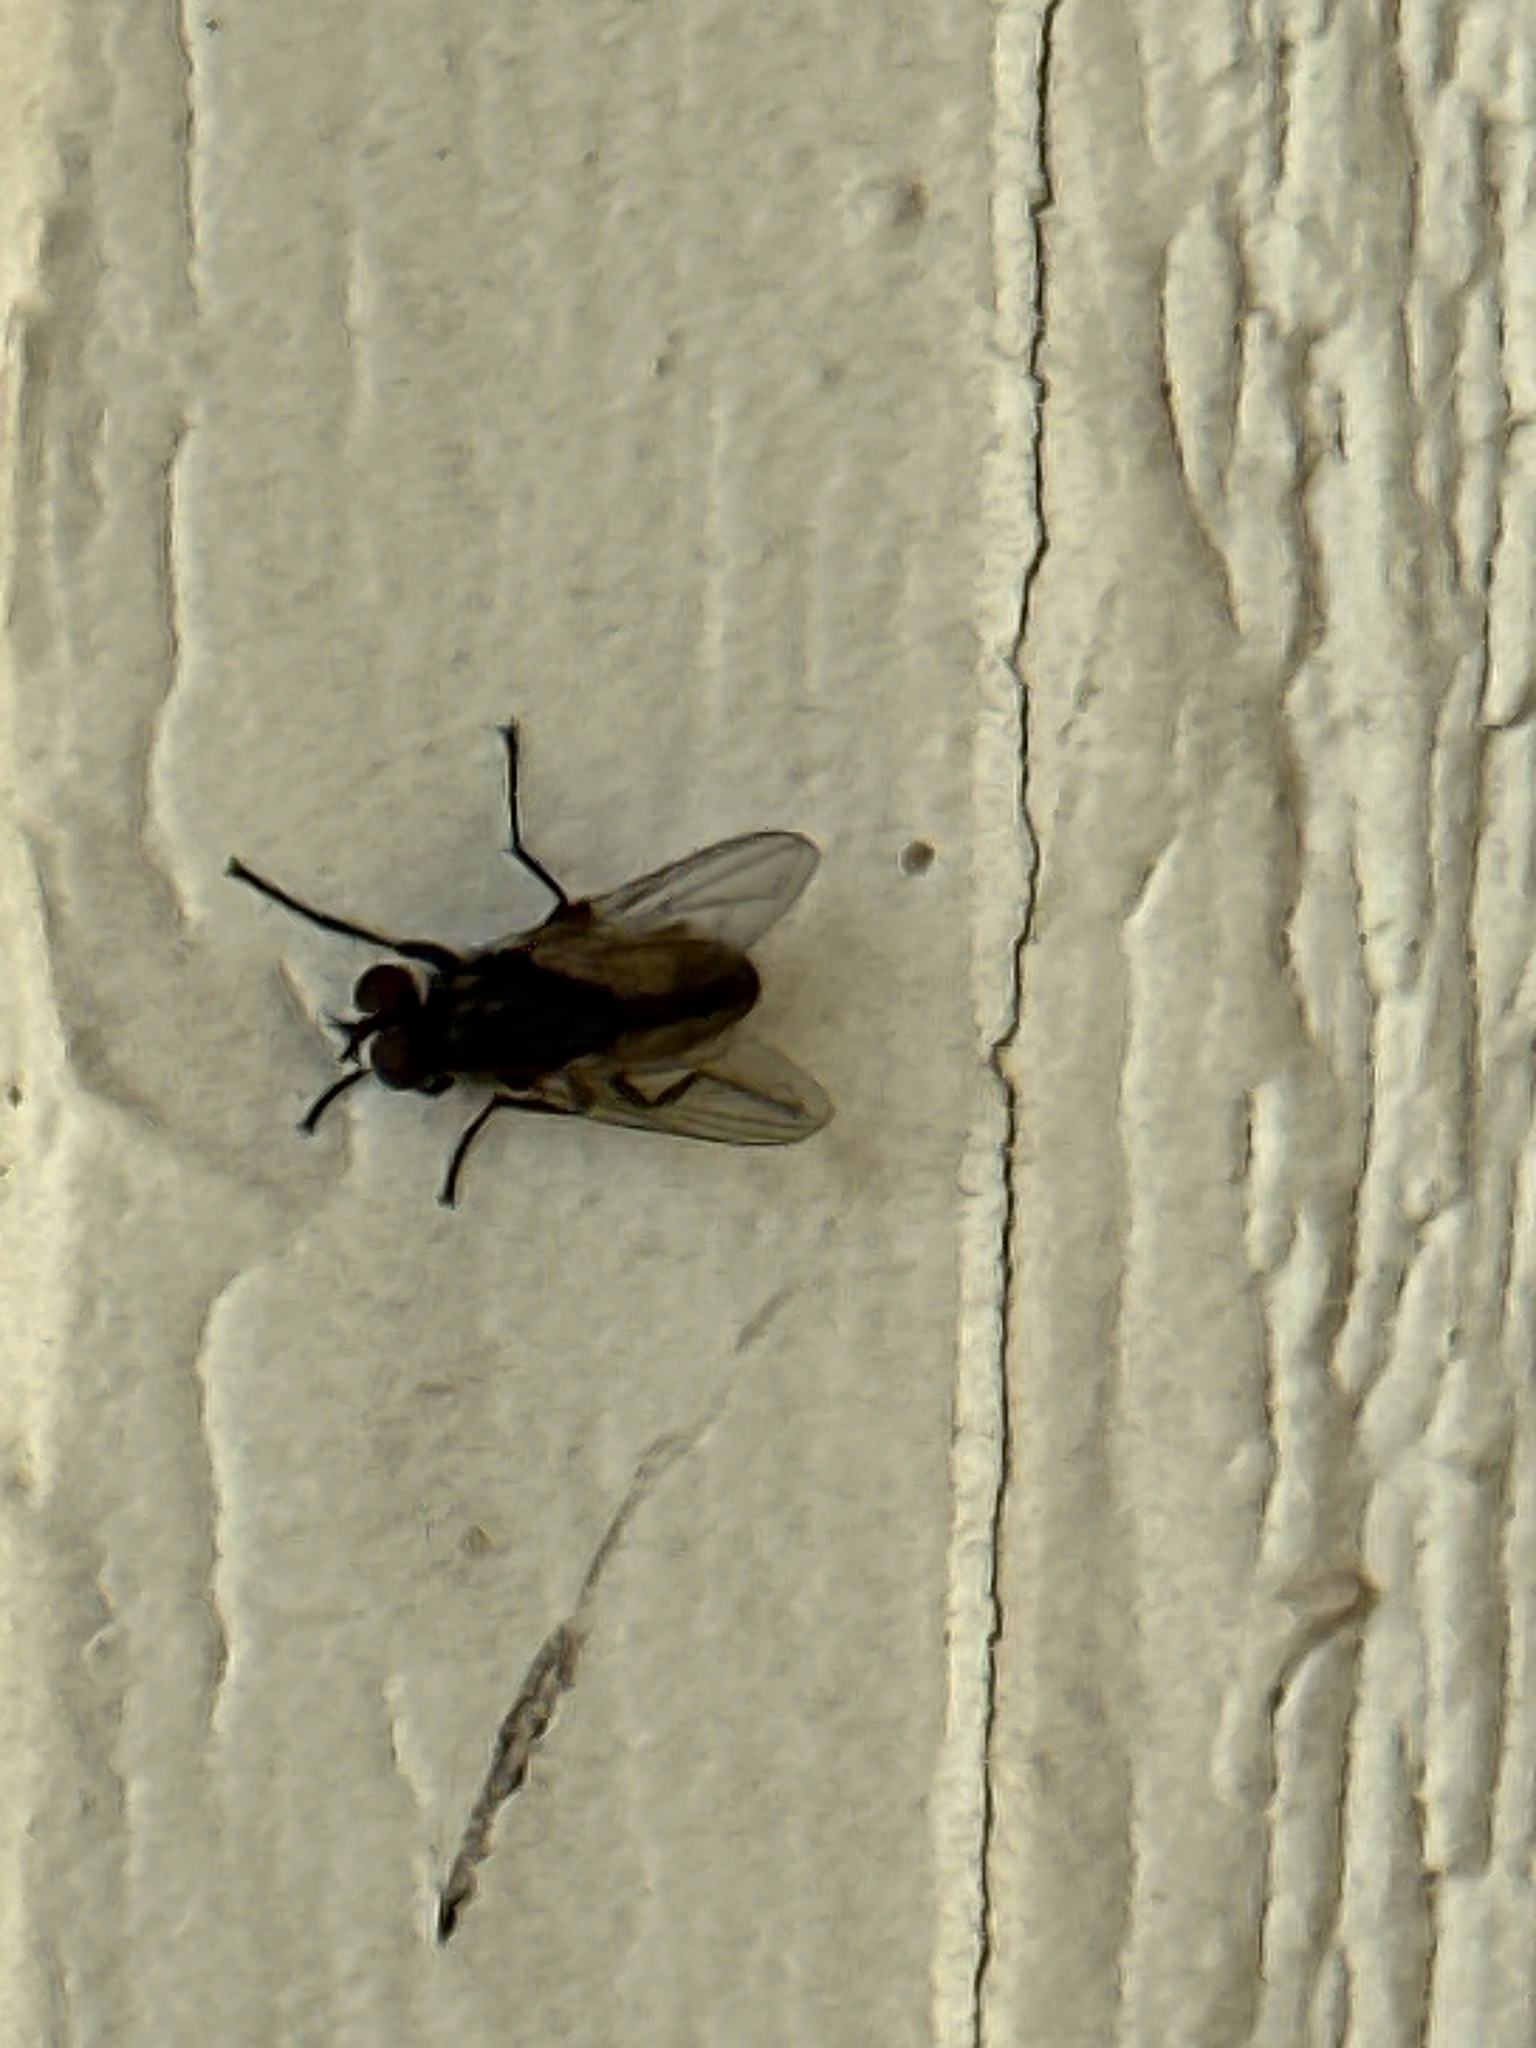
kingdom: Animalia
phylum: Arthropoda
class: Insecta
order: Diptera
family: Muscidae
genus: Musca
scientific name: Musca domestica
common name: House fly
